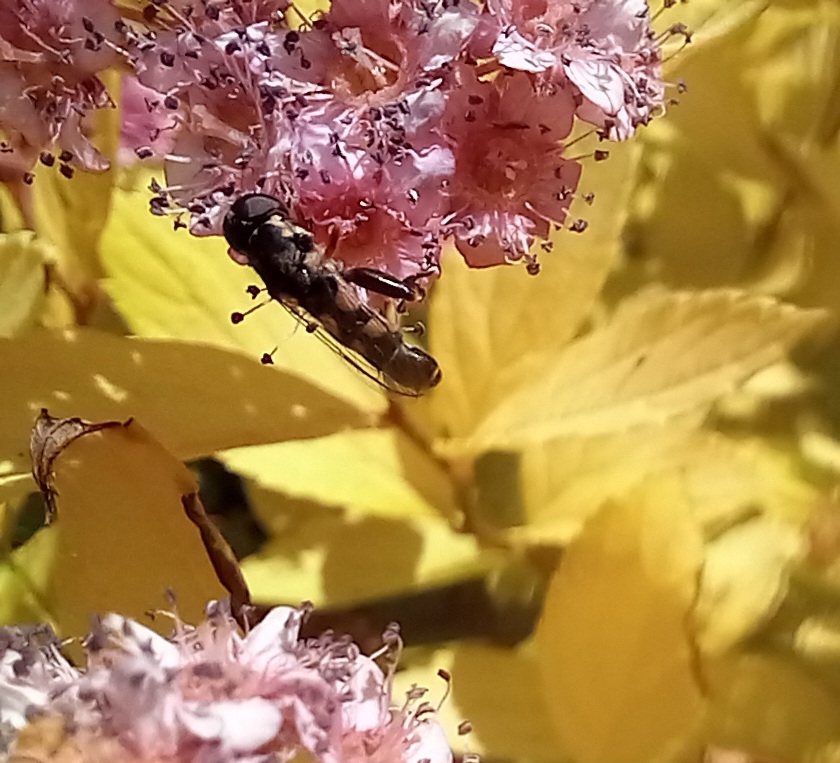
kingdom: Animalia
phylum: Arthropoda
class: Insecta
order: Diptera
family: Syrphidae
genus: Syritta
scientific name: Syritta pipiens
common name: Hover fly
